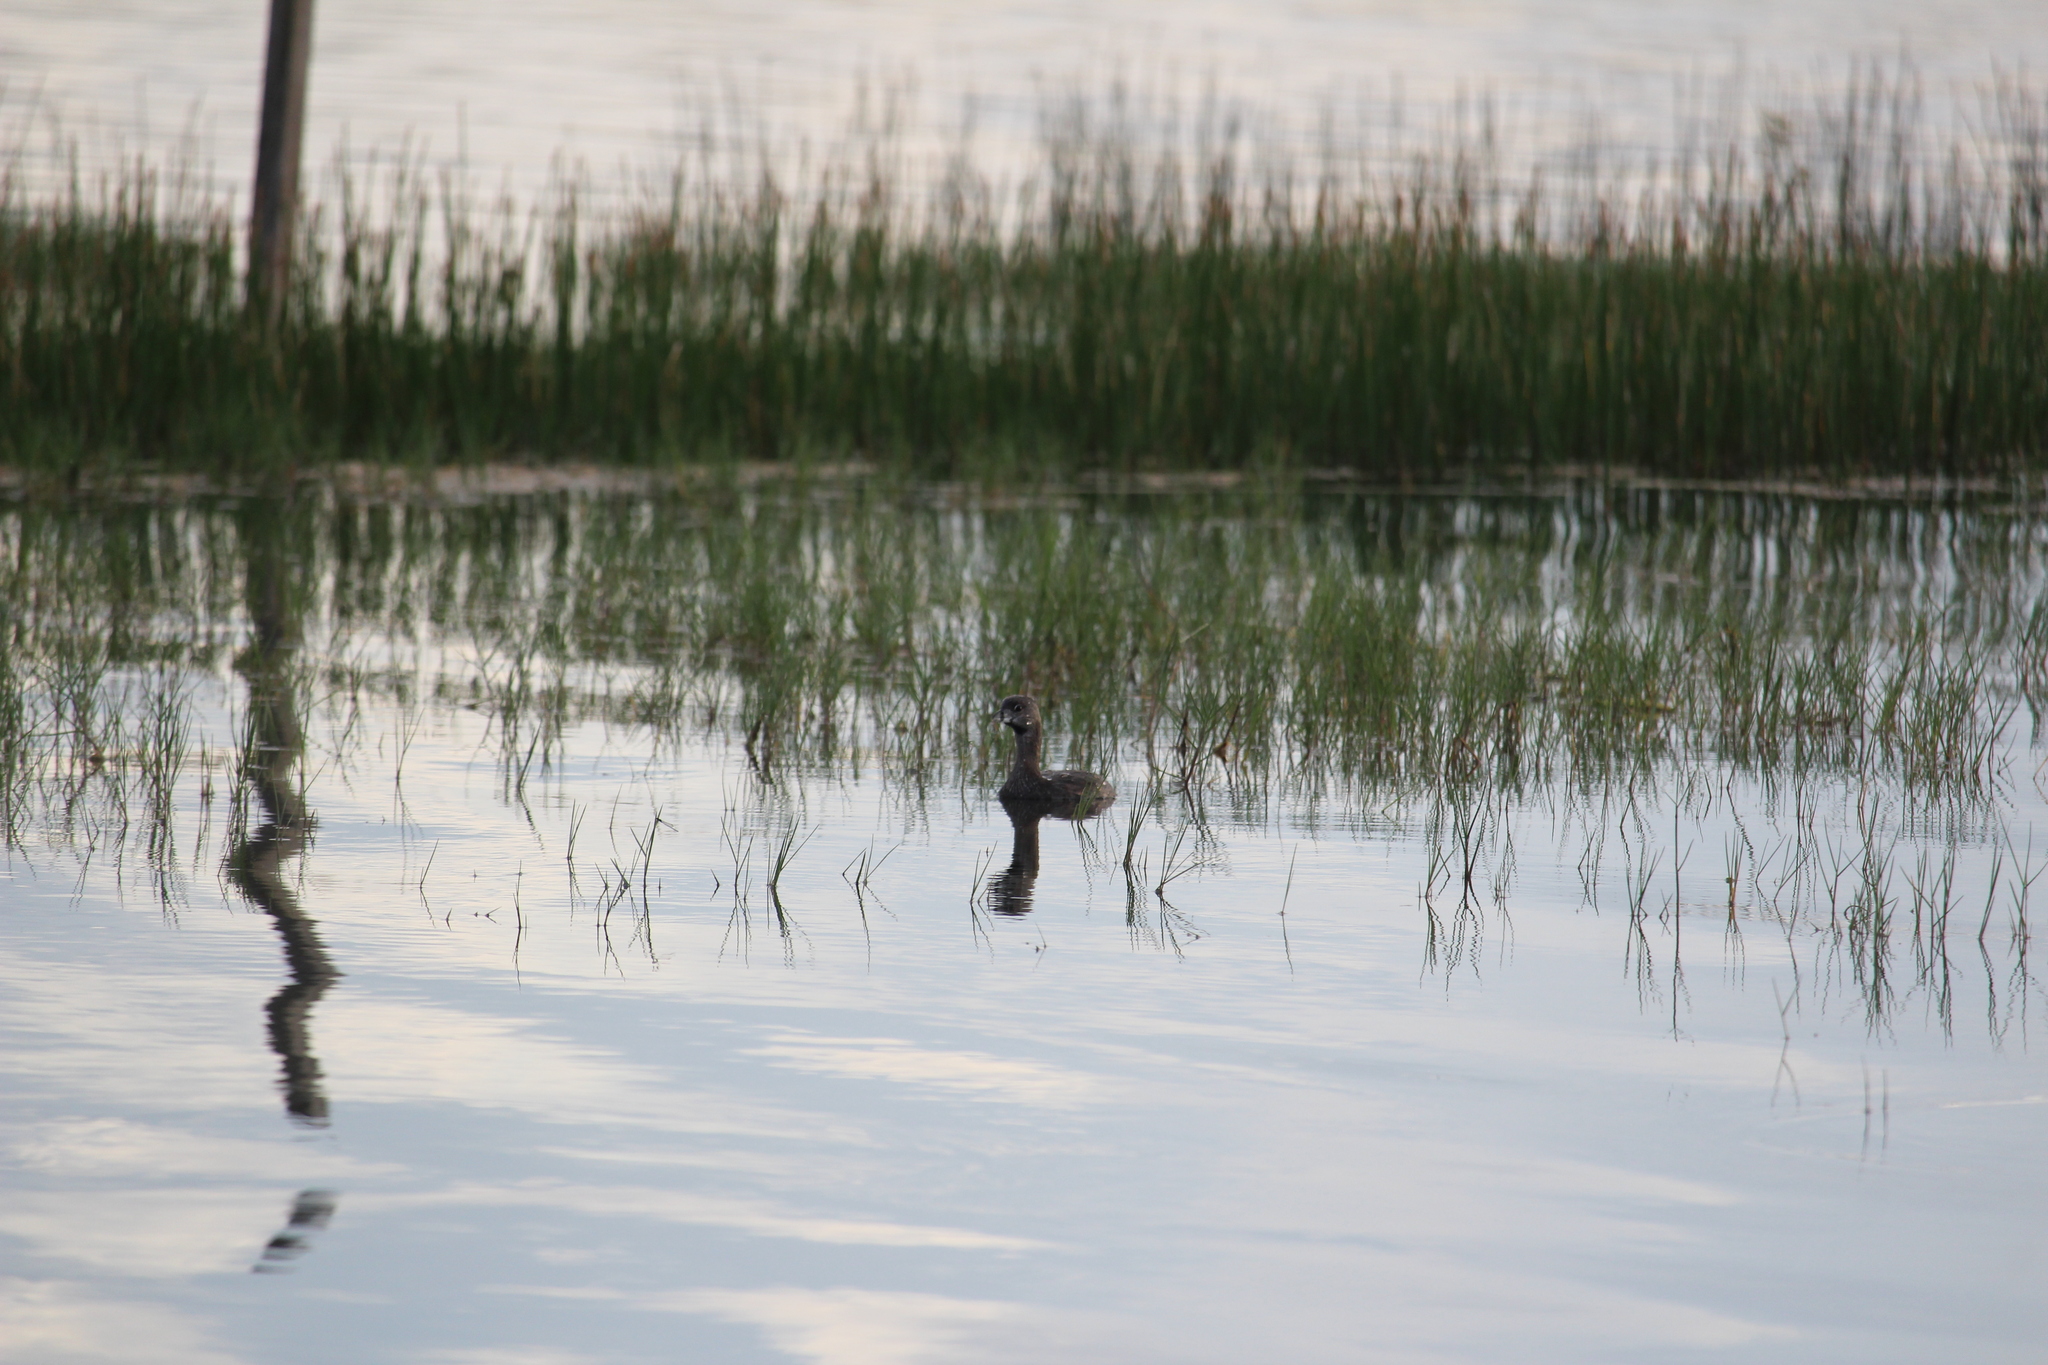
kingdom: Animalia
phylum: Chordata
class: Aves
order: Podicipediformes
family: Podicipedidae
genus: Podilymbus
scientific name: Podilymbus podiceps
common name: Pied-billed grebe
